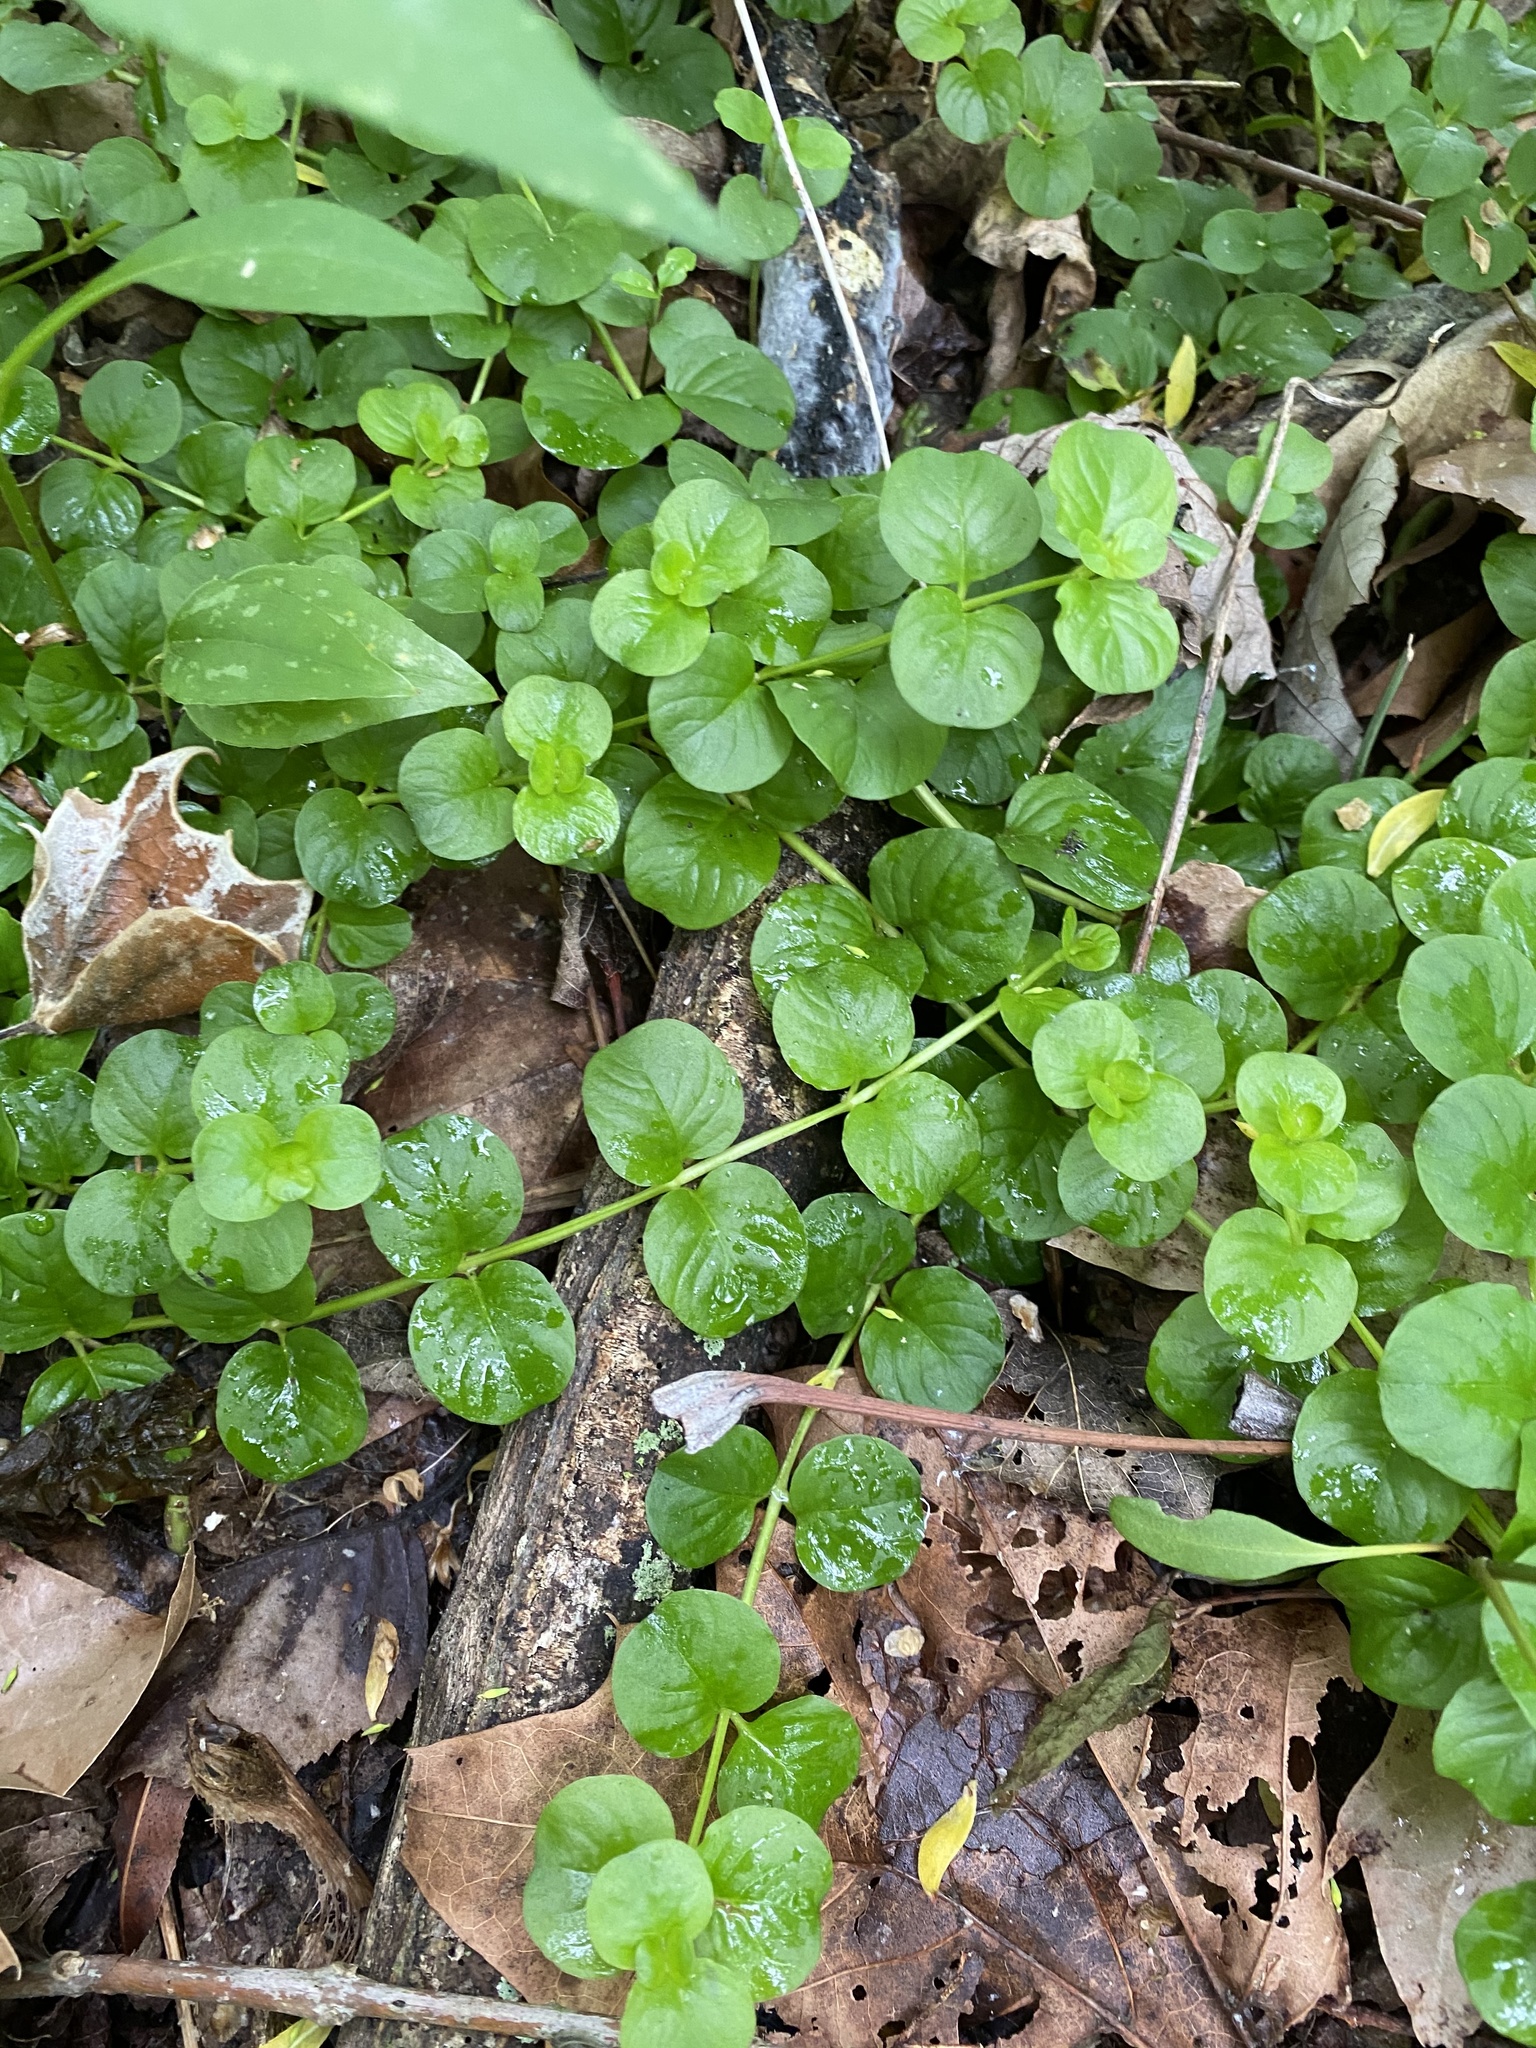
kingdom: Plantae
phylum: Tracheophyta
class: Magnoliopsida
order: Ericales
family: Primulaceae
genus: Lysimachia
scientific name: Lysimachia nummularia
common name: Moneywort
